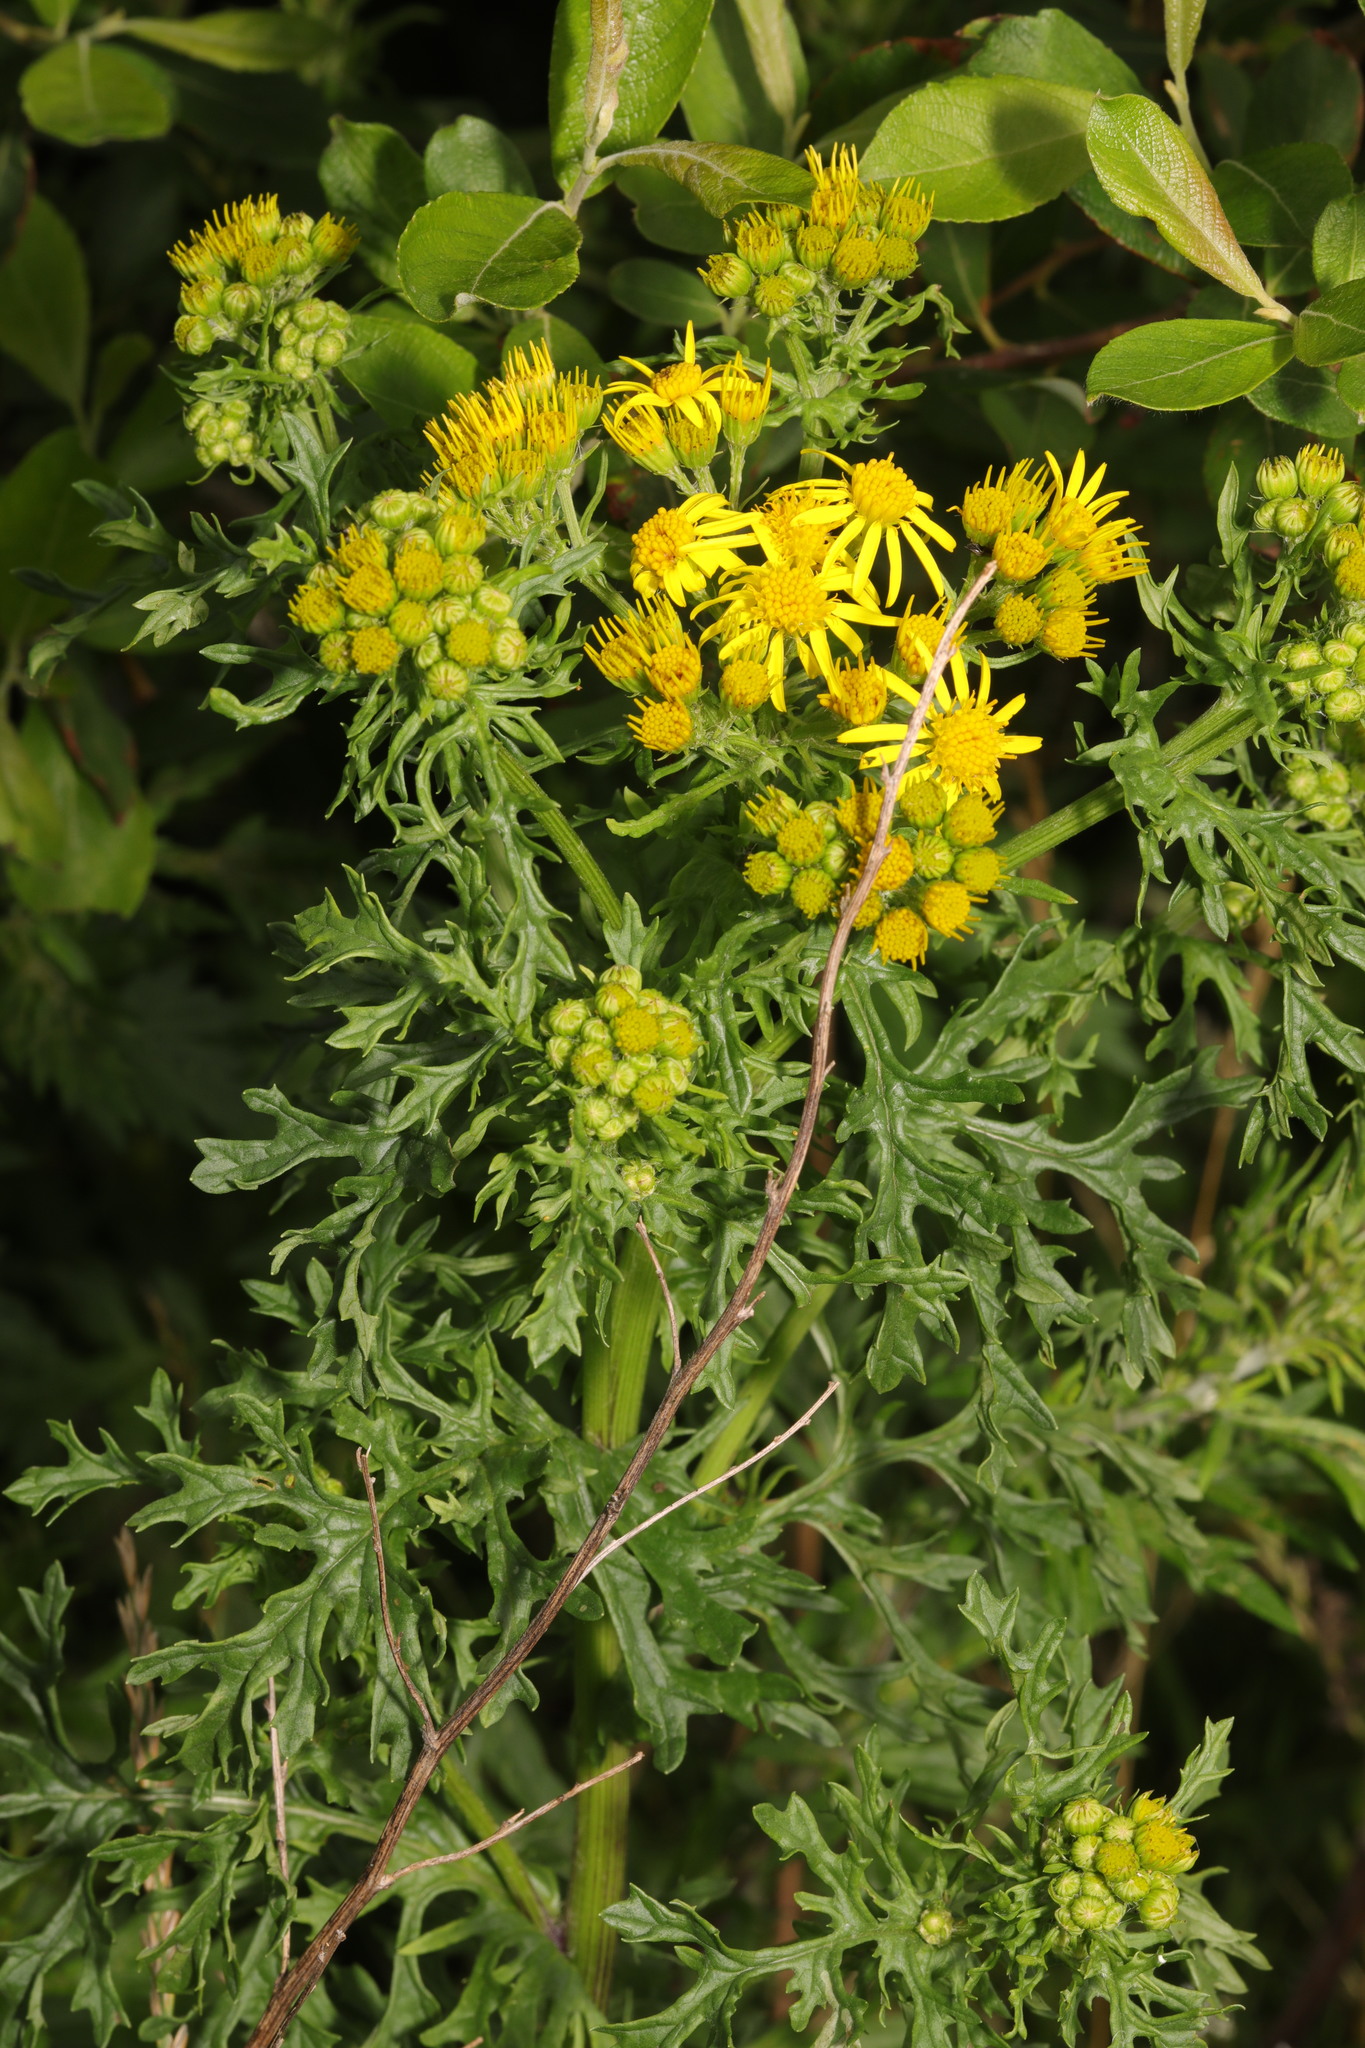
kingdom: Plantae
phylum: Tracheophyta
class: Magnoliopsida
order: Asterales
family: Asteraceae
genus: Jacobaea
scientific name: Jacobaea vulgaris
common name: Stinking willie
